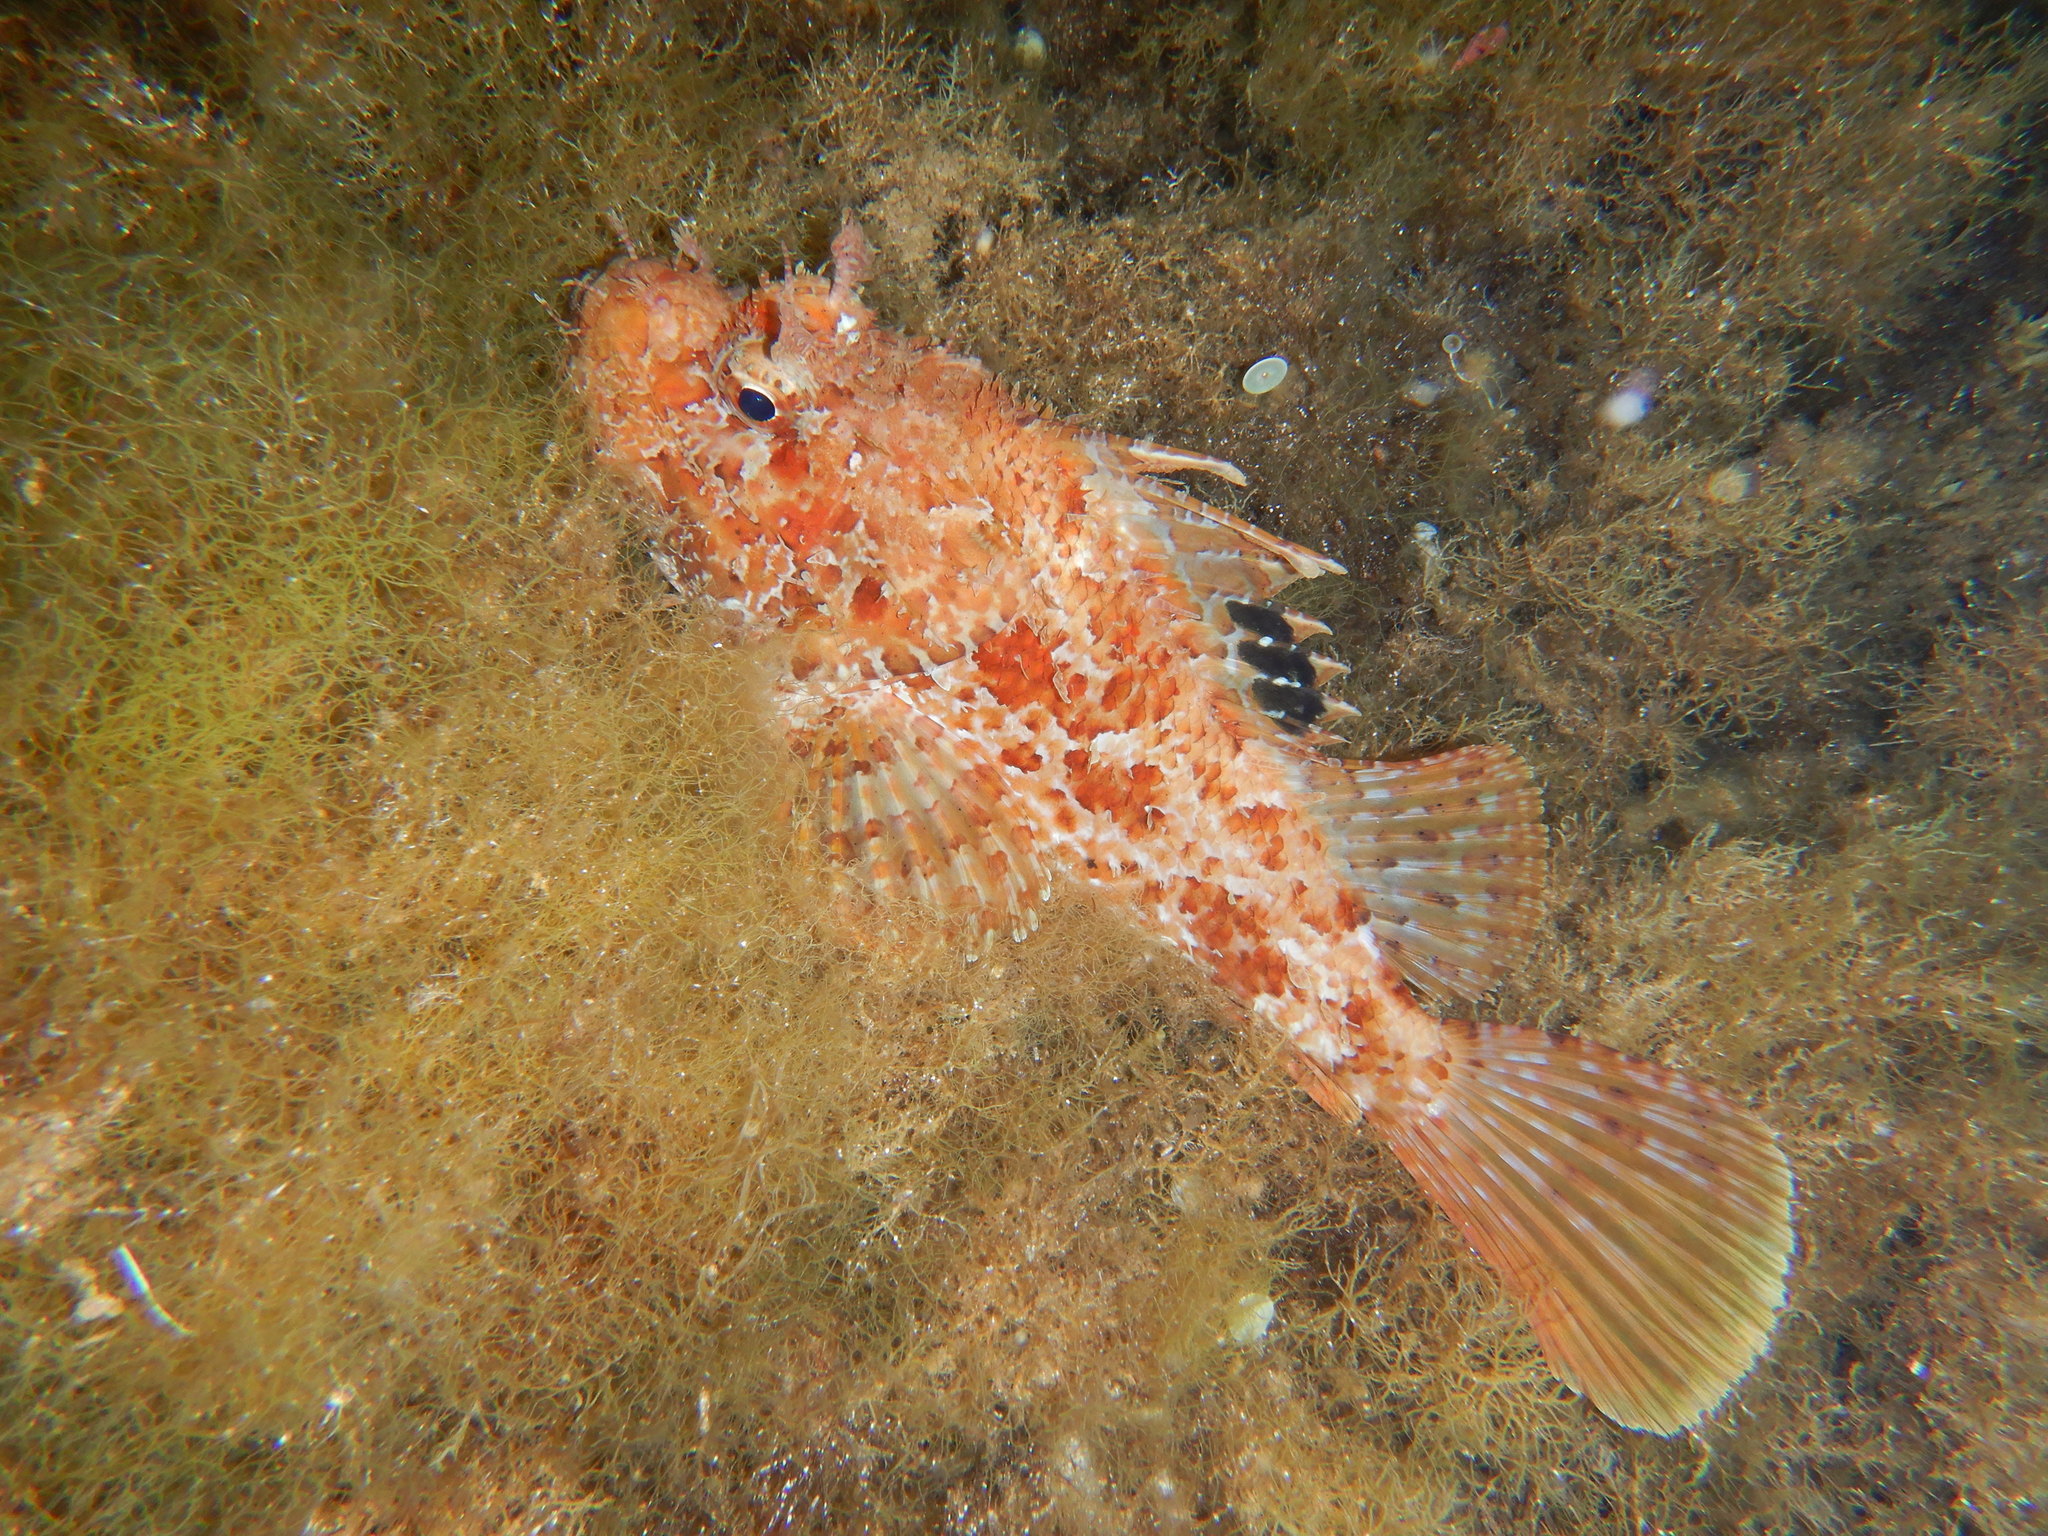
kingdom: Animalia
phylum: Chordata
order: Scorpaeniformes
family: Scorpaenidae
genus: Scorpaena
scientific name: Scorpaena scrofa
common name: Red scorpionfish
